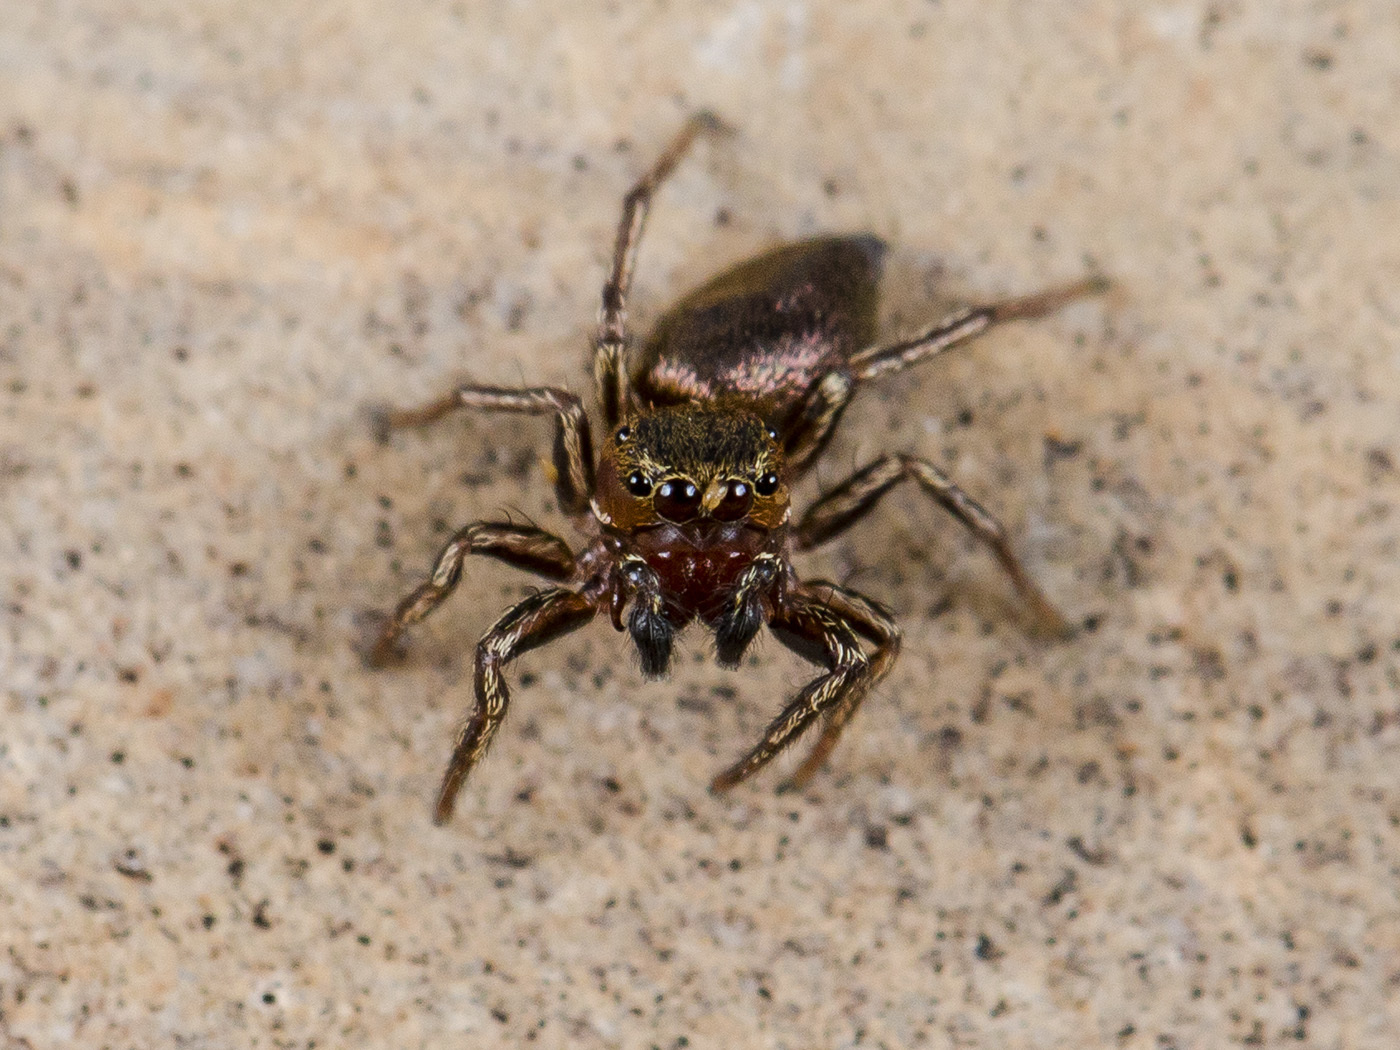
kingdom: Animalia
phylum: Arthropoda
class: Arachnida
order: Araneae
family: Salticidae
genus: Heliophanus
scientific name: Heliophanus patagiatus
